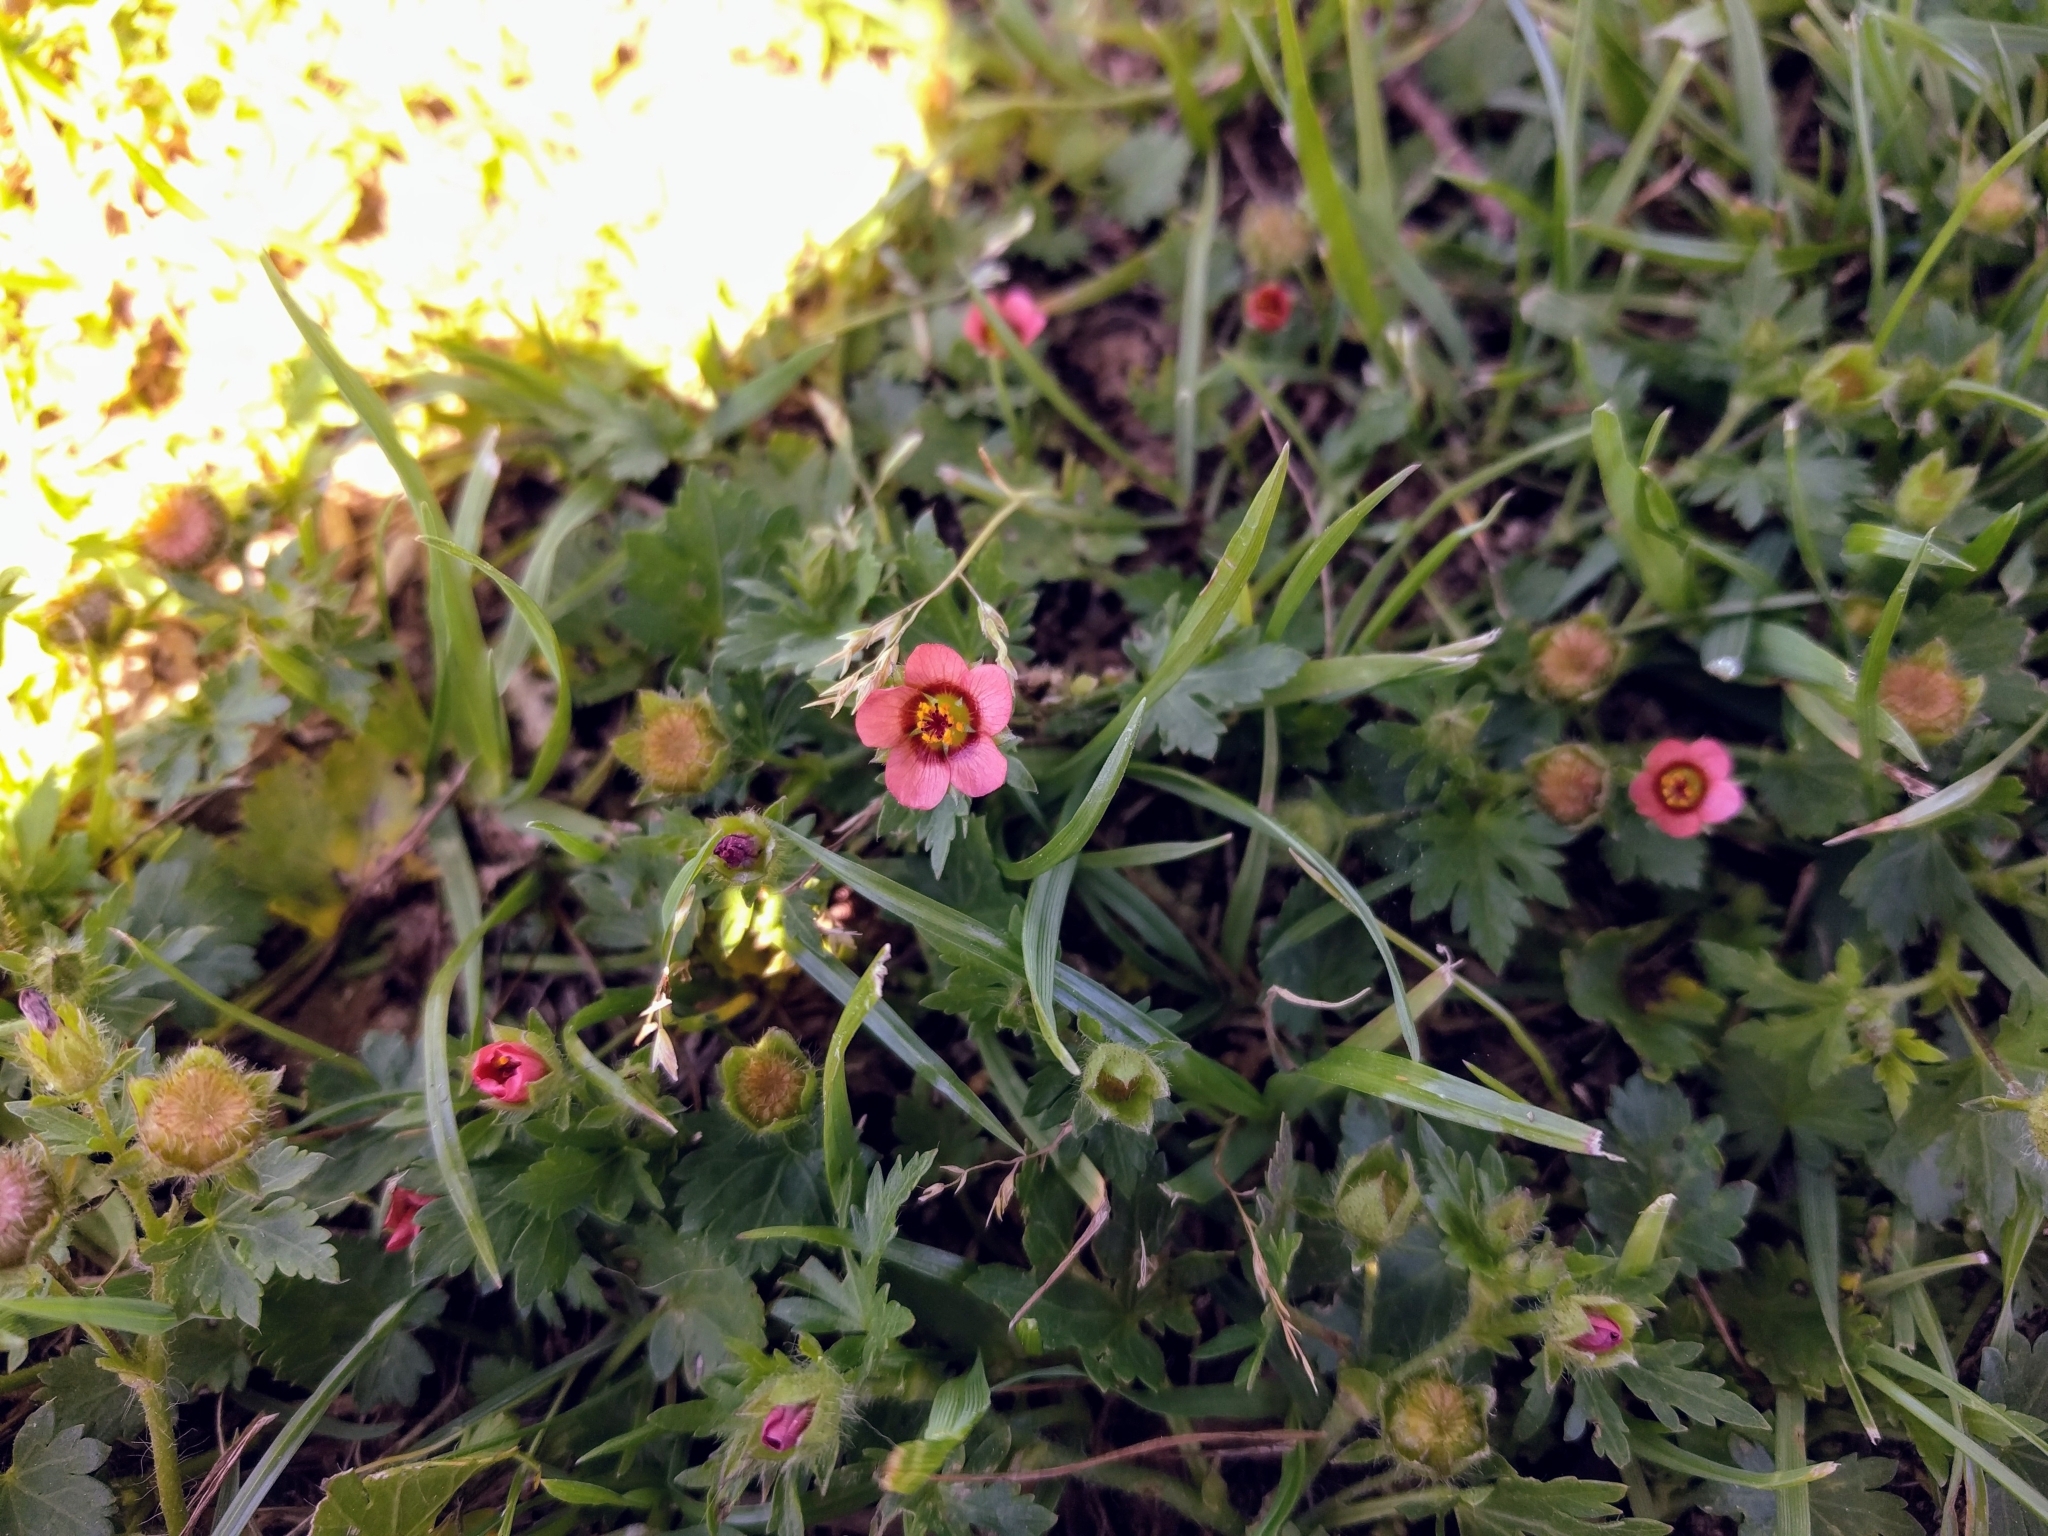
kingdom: Plantae
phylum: Tracheophyta
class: Magnoliopsida
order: Malvales
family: Malvaceae
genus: Modiola
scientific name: Modiola caroliniana
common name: Carolina bristlemallow
